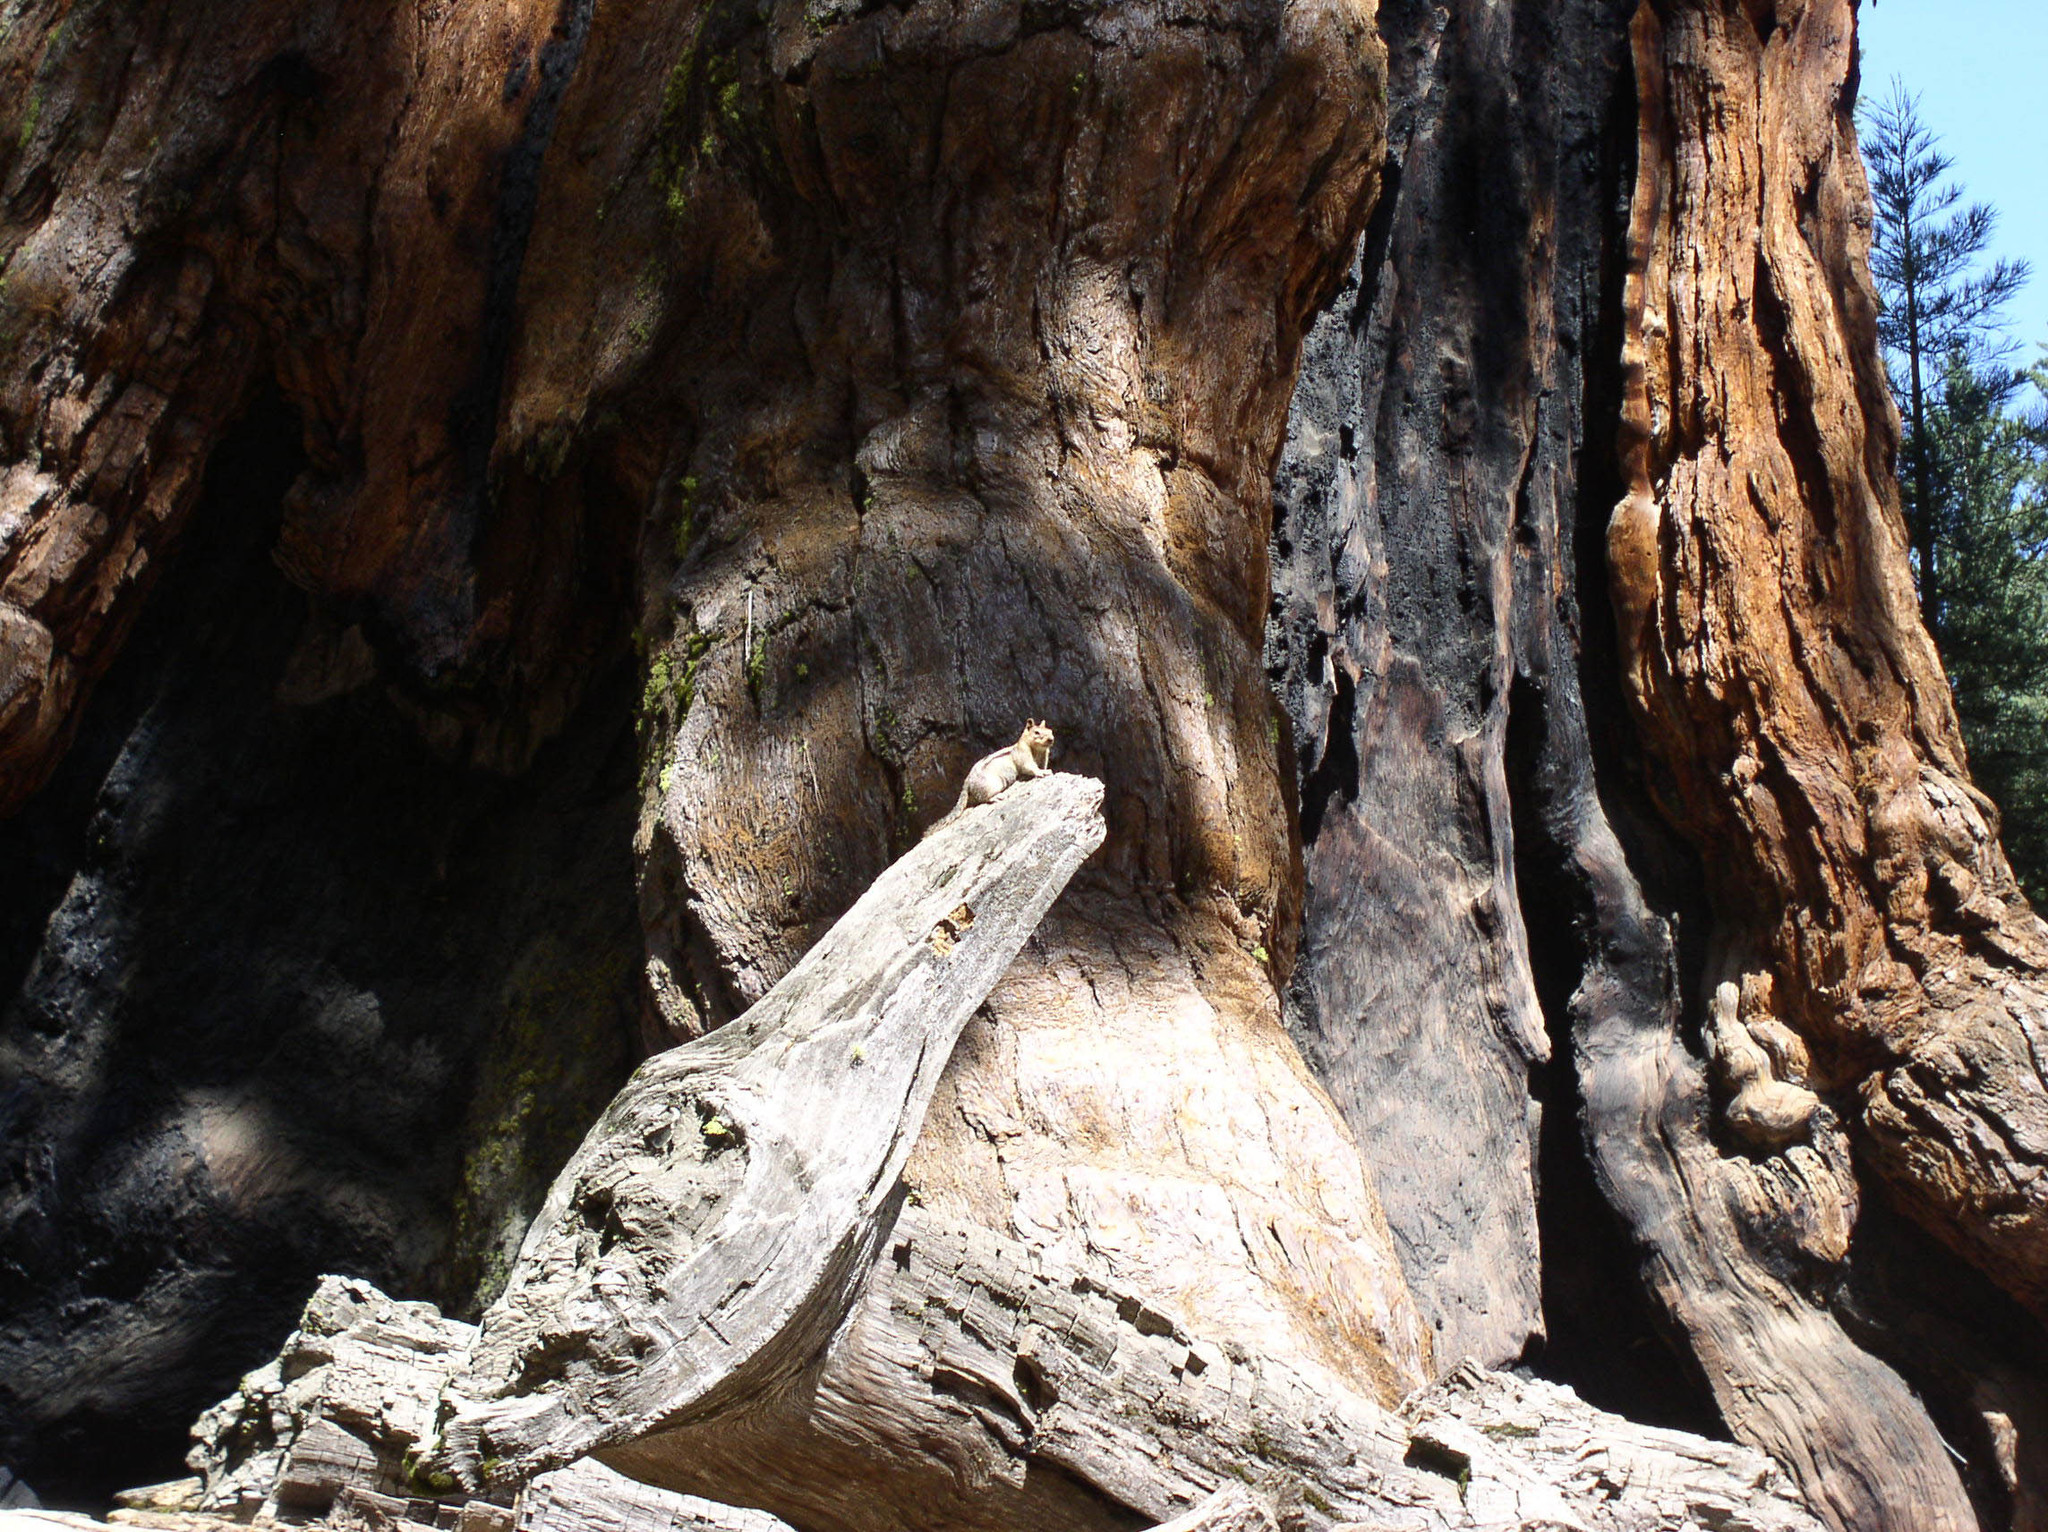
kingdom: Animalia
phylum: Chordata
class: Mammalia
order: Rodentia
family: Sciuridae
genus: Callospermophilus
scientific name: Callospermophilus lateralis
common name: Golden-mantled ground squirrel
